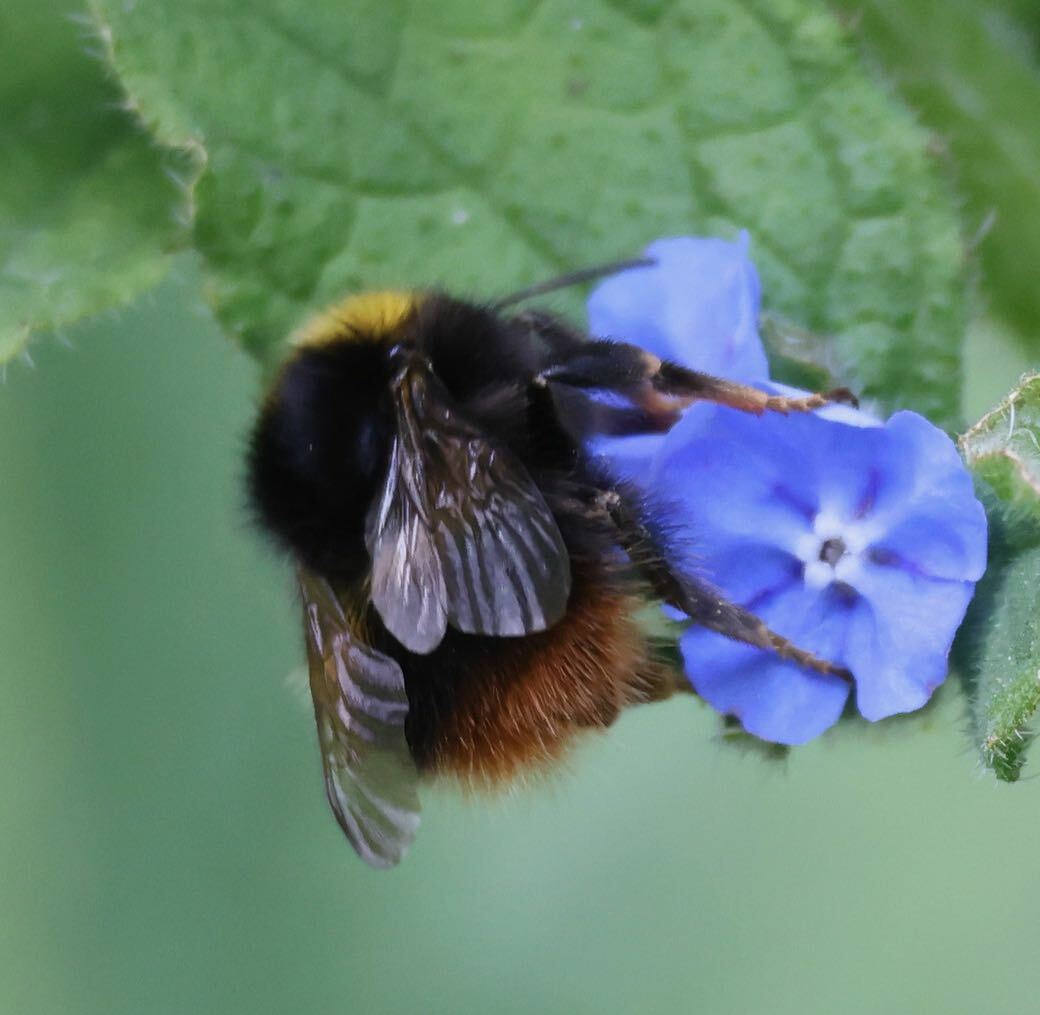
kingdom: Animalia
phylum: Arthropoda
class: Insecta
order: Hymenoptera
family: Apidae
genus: Bombus
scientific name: Bombus pratorum
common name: Early humble-bee
